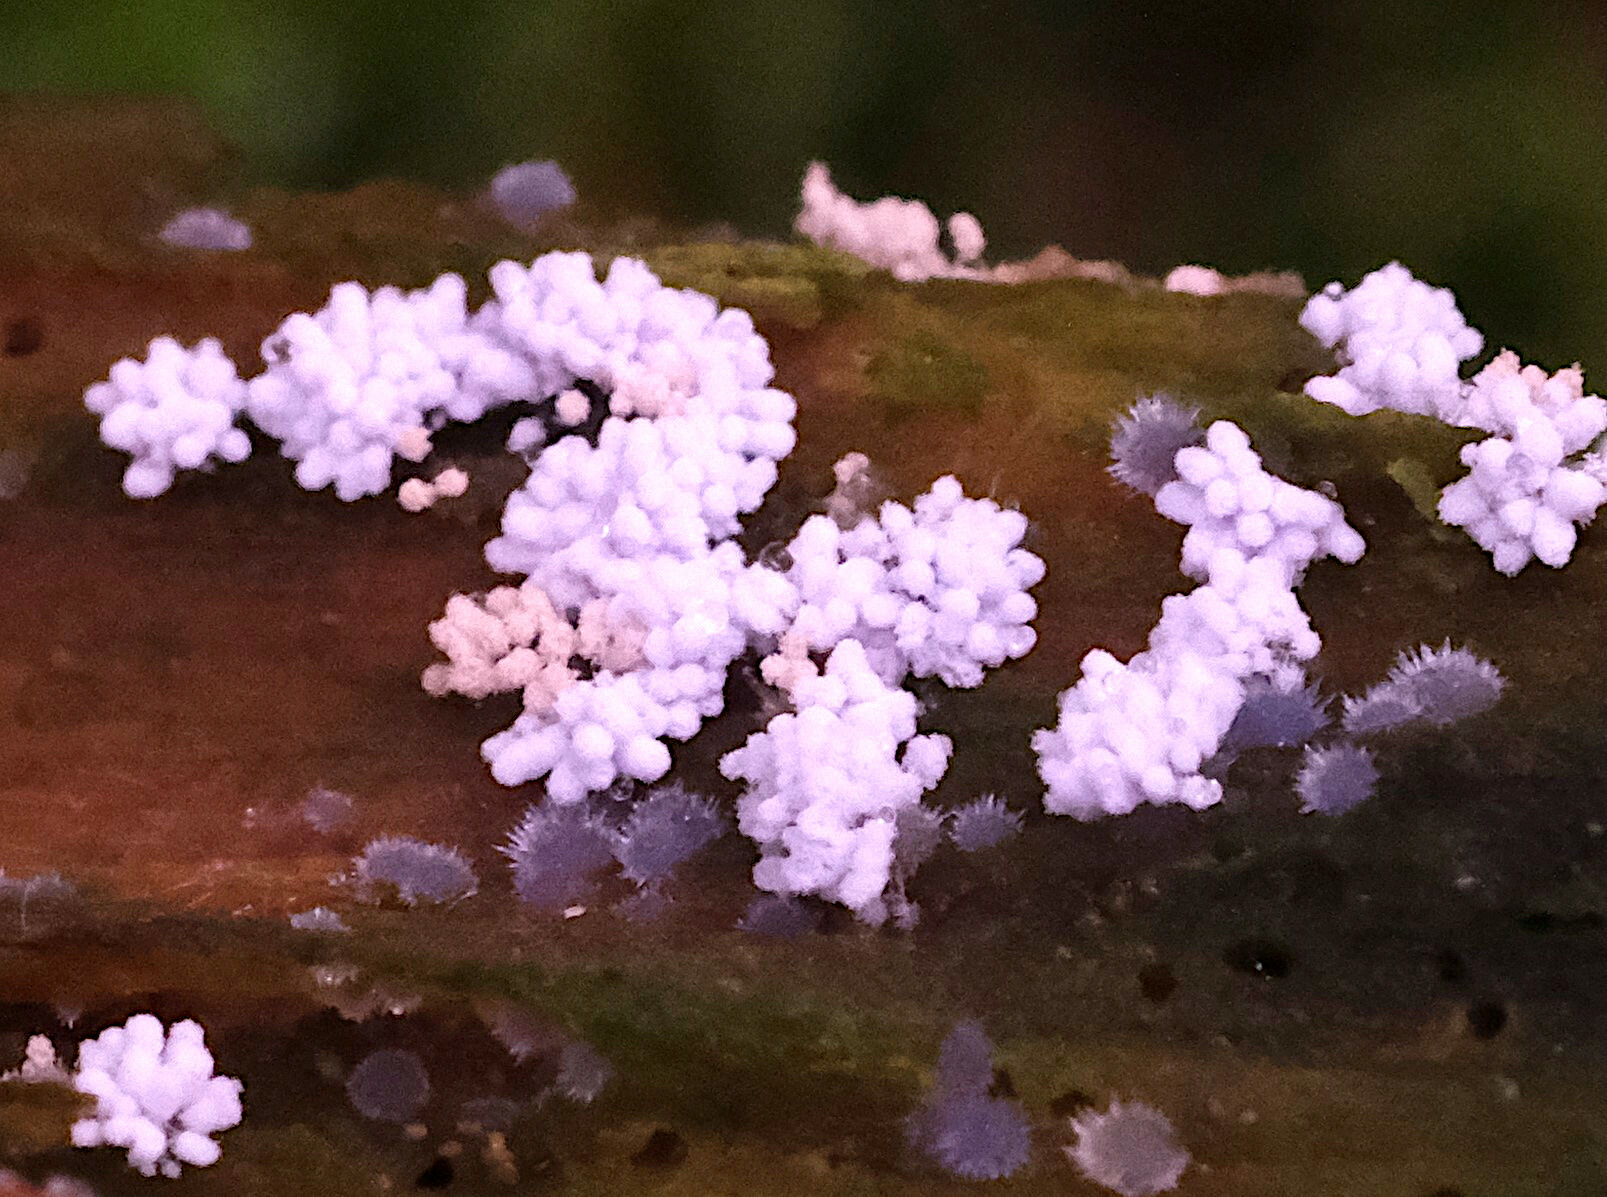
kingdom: Fungi
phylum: Ascomycota
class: Pezizomycetes
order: Pezizales
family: Pezizaceae
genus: Chromelosporiopsis
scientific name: Chromelosporiopsis coerulescens
